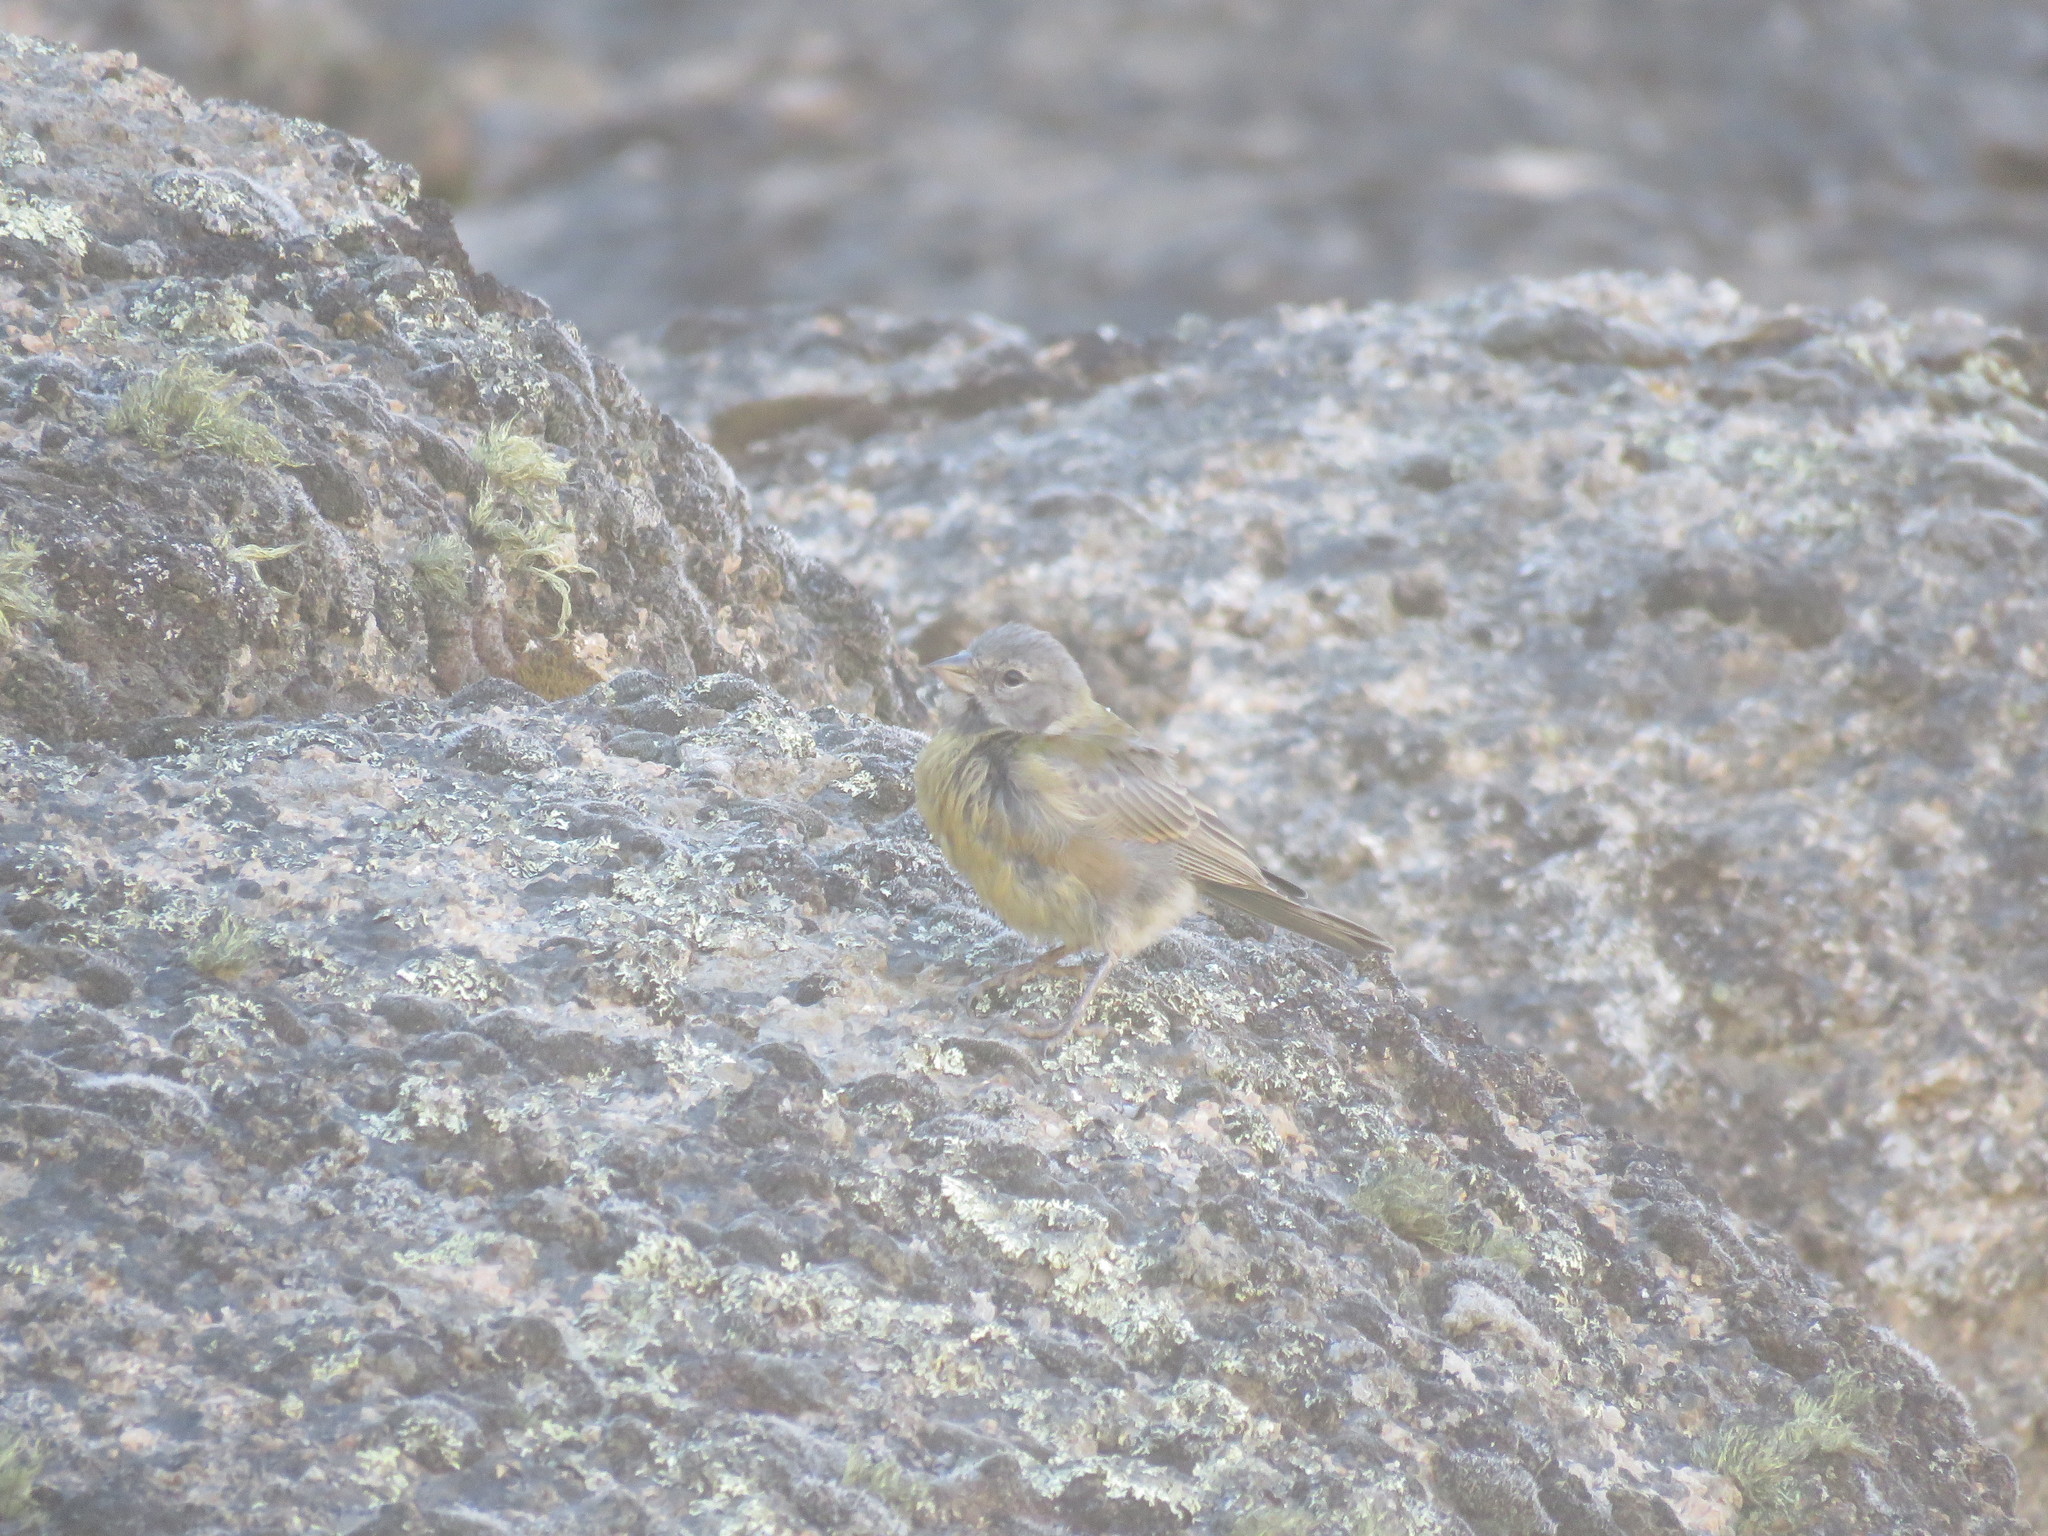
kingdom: Animalia
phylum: Chordata
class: Aves
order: Passeriformes
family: Thraupidae
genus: Phrygilus
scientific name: Phrygilus gayi
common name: Grey-hooded sierra finch
